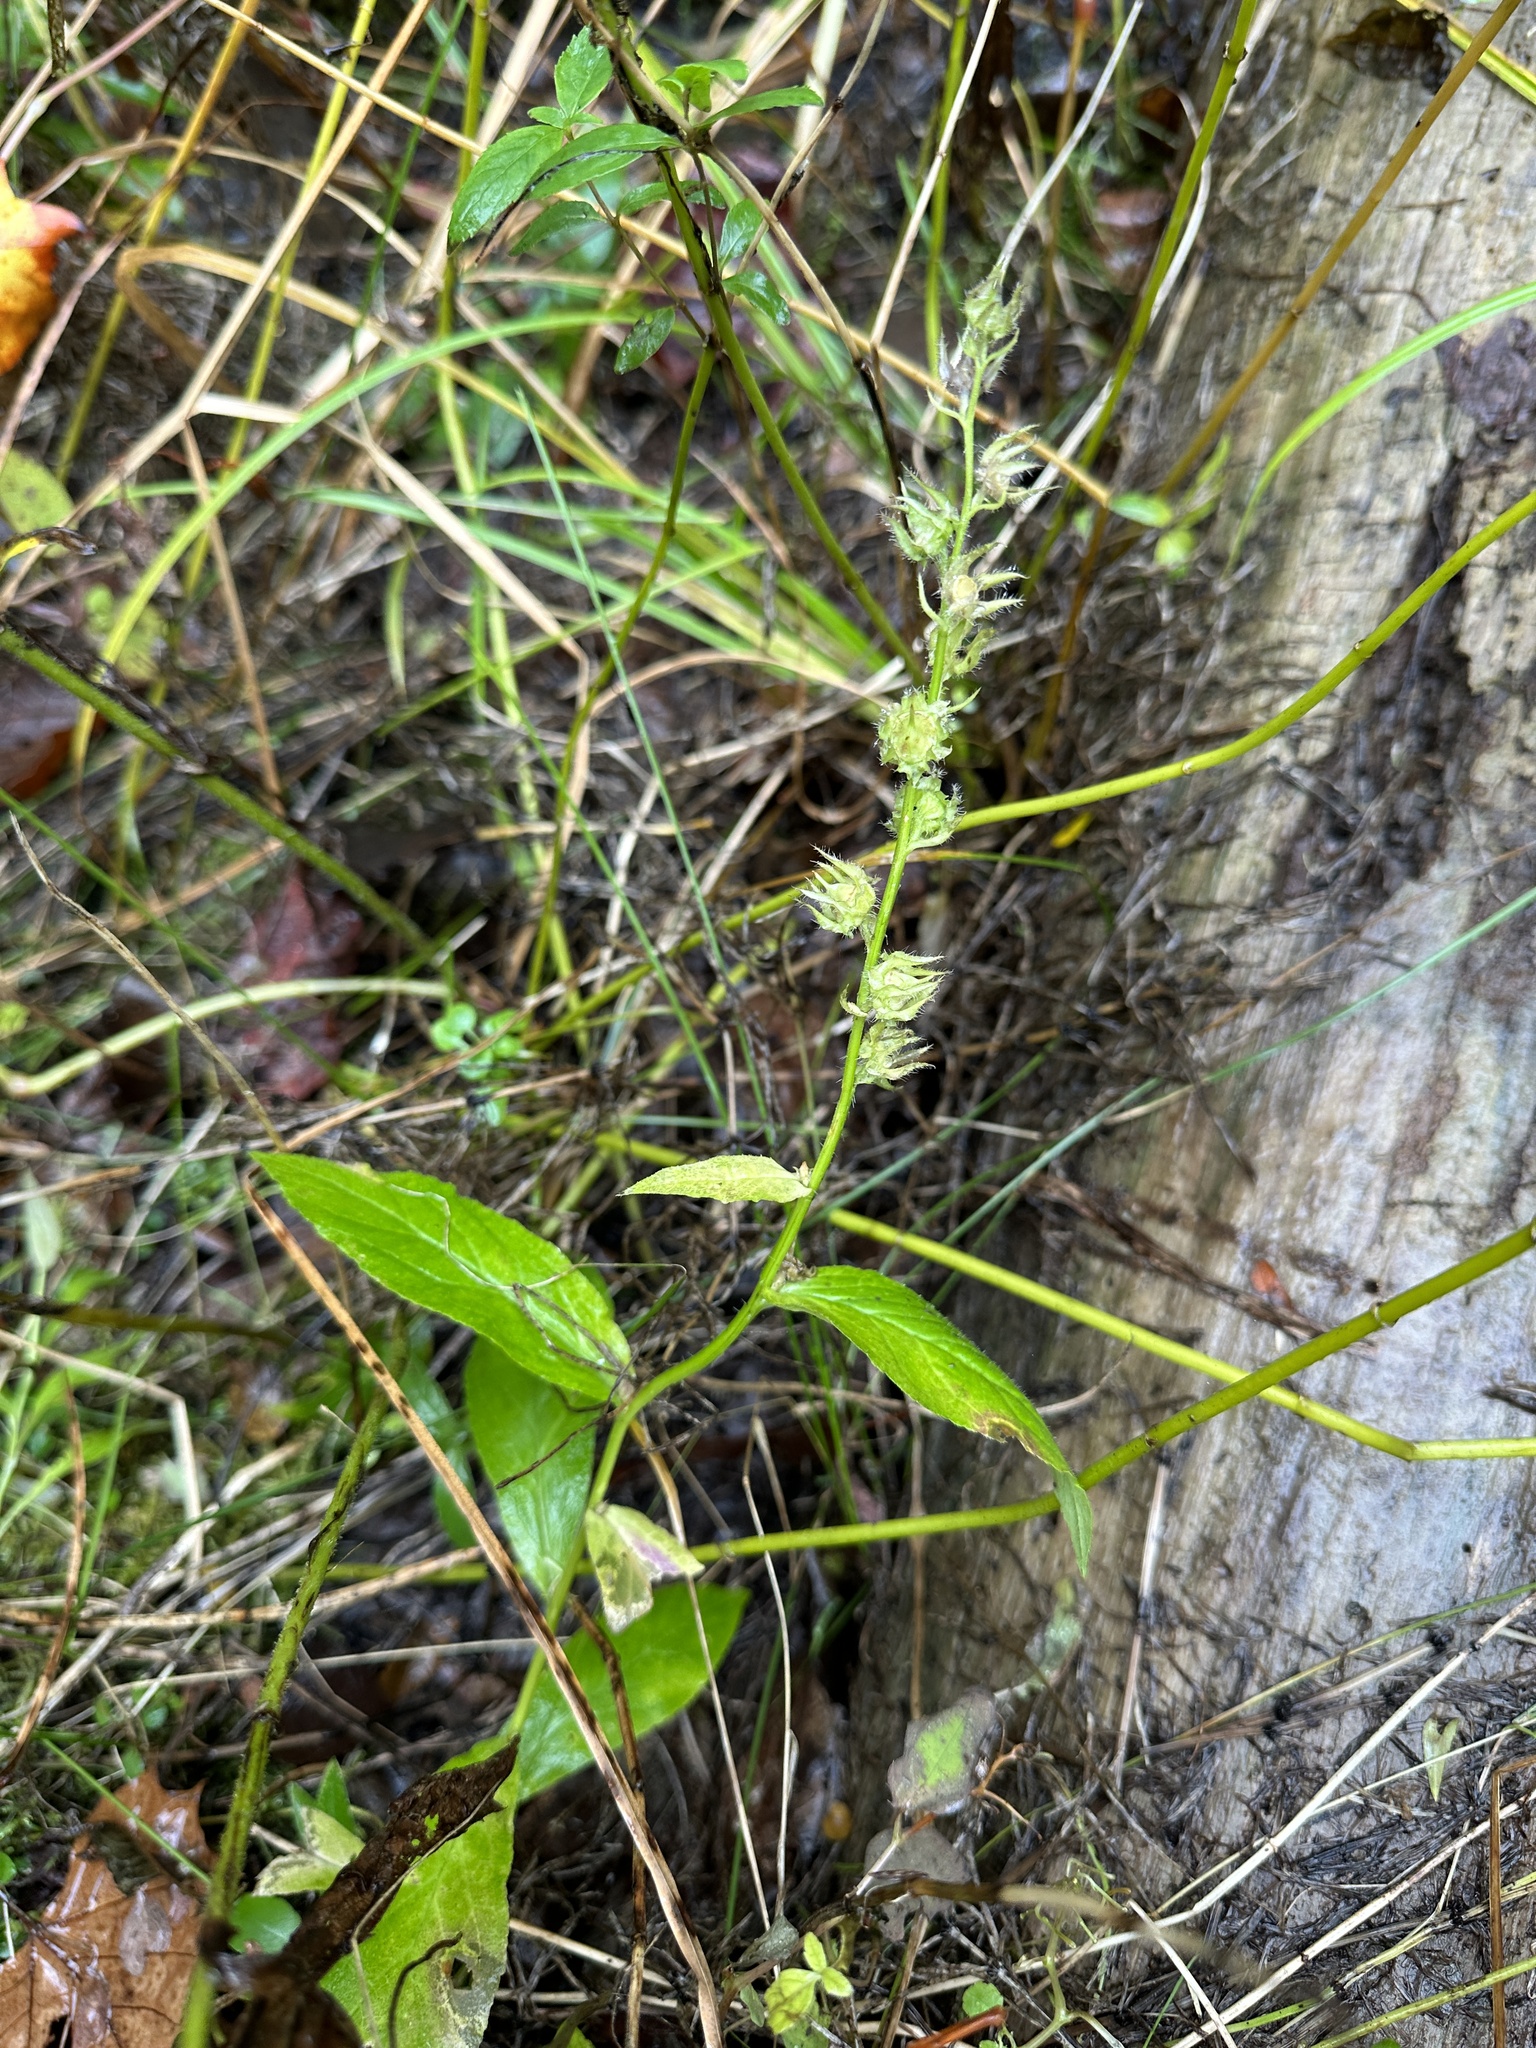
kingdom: Plantae
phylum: Tracheophyta
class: Magnoliopsida
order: Asterales
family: Campanulaceae
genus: Lobelia
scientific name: Lobelia siphilitica
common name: Great lobelia
